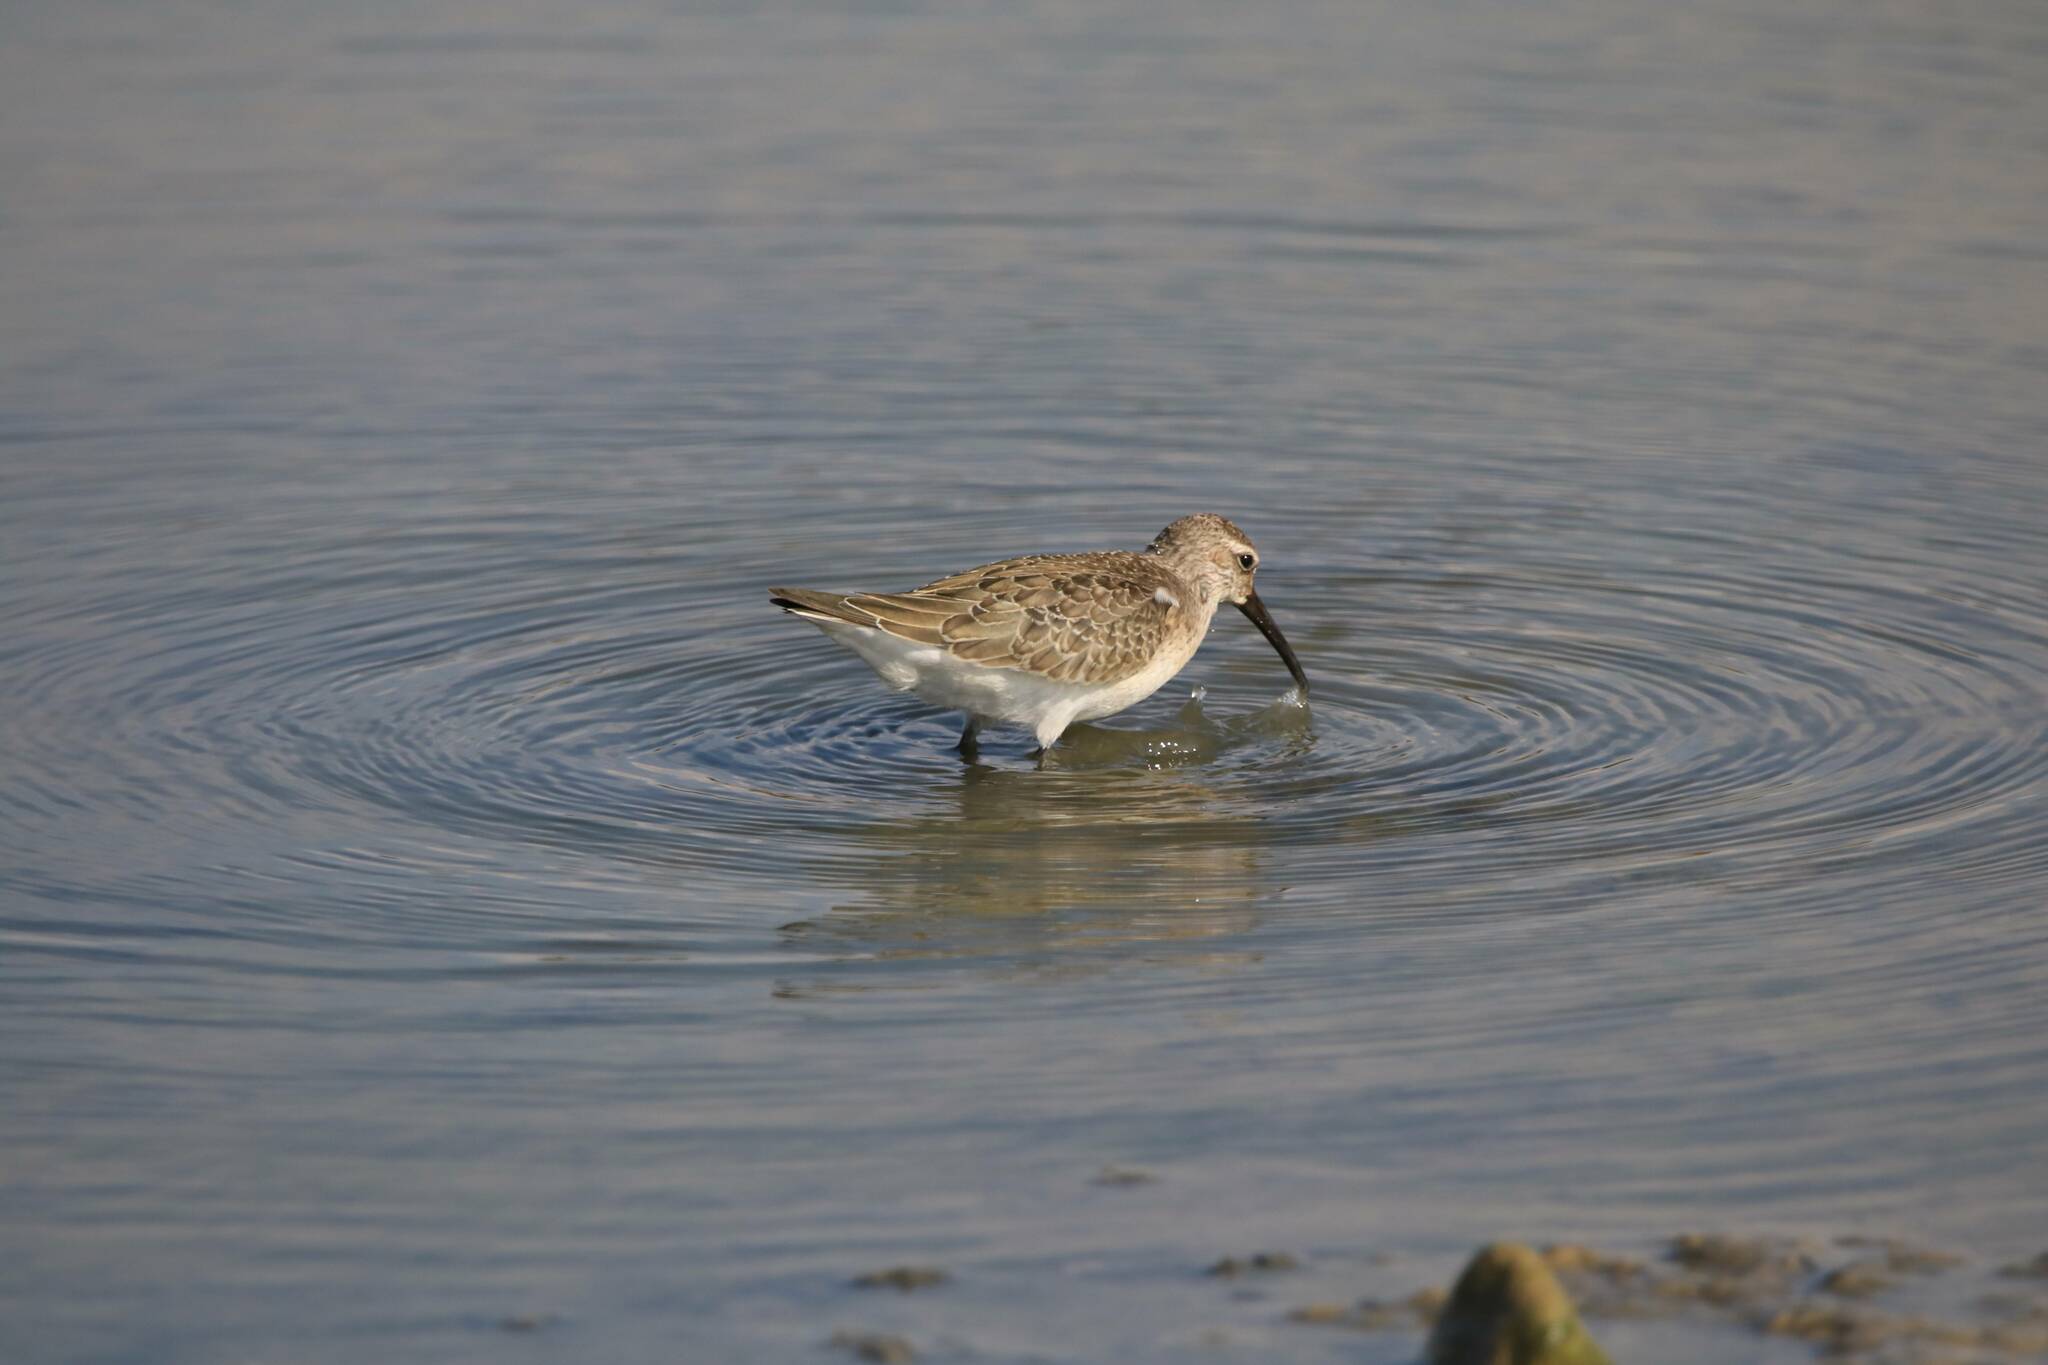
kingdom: Animalia
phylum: Chordata
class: Aves
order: Charadriiformes
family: Scolopacidae
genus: Calidris
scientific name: Calidris ferruginea
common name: Curlew sandpiper
